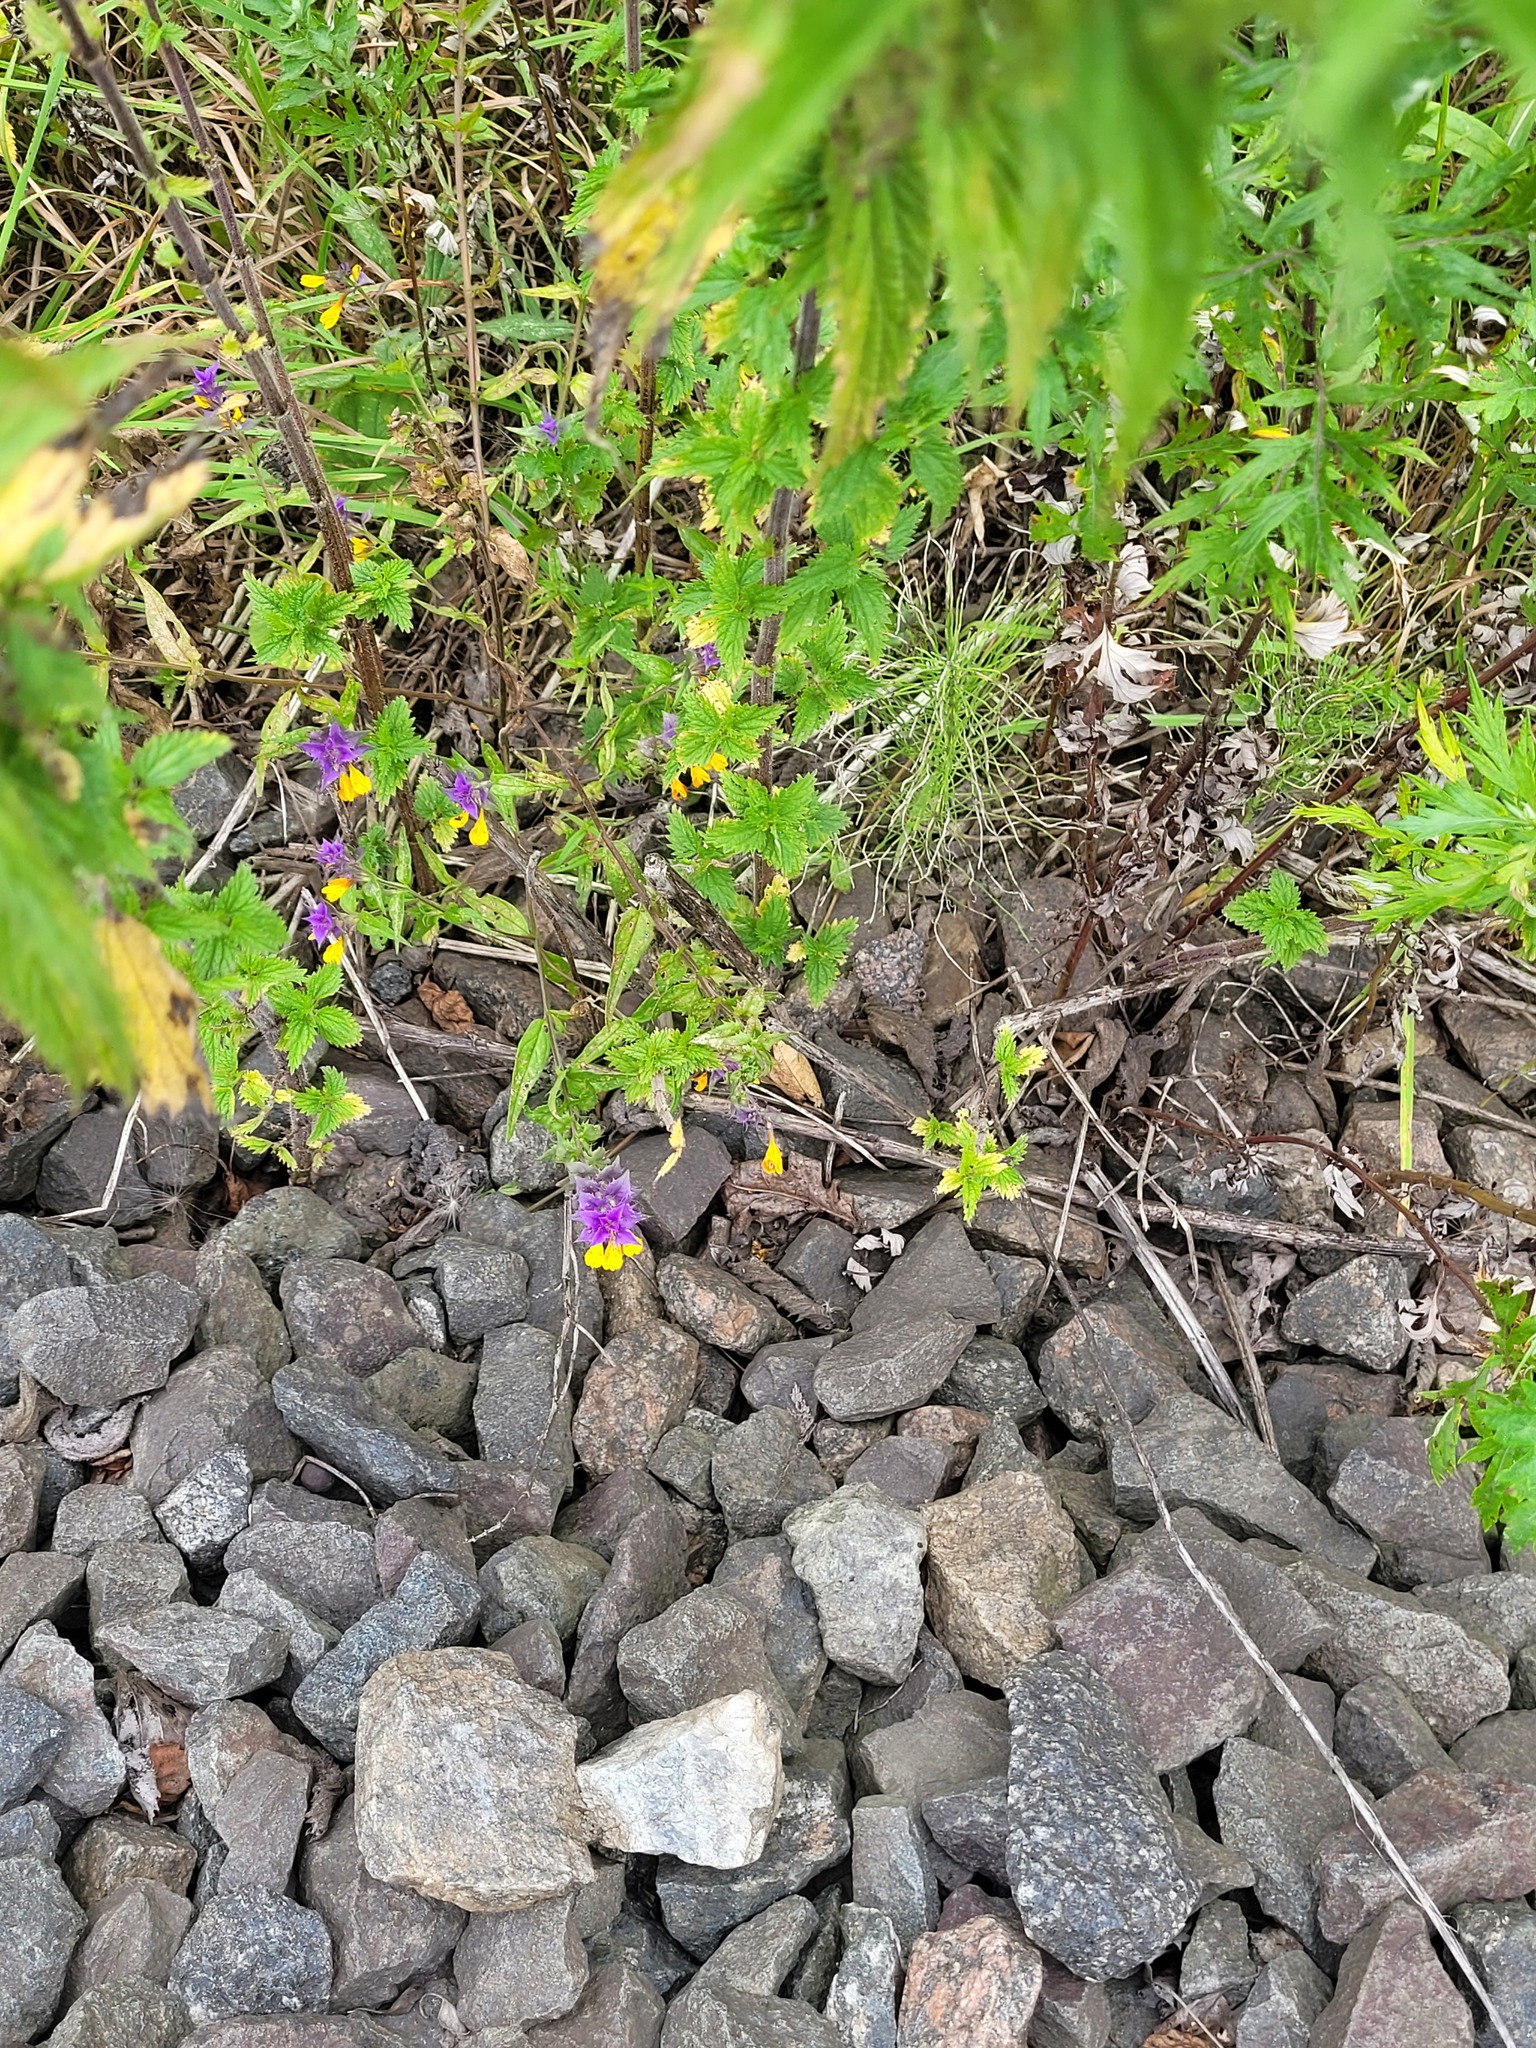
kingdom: Plantae
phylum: Tracheophyta
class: Magnoliopsida
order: Lamiales
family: Orobanchaceae
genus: Melampyrum
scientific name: Melampyrum nemorosum
